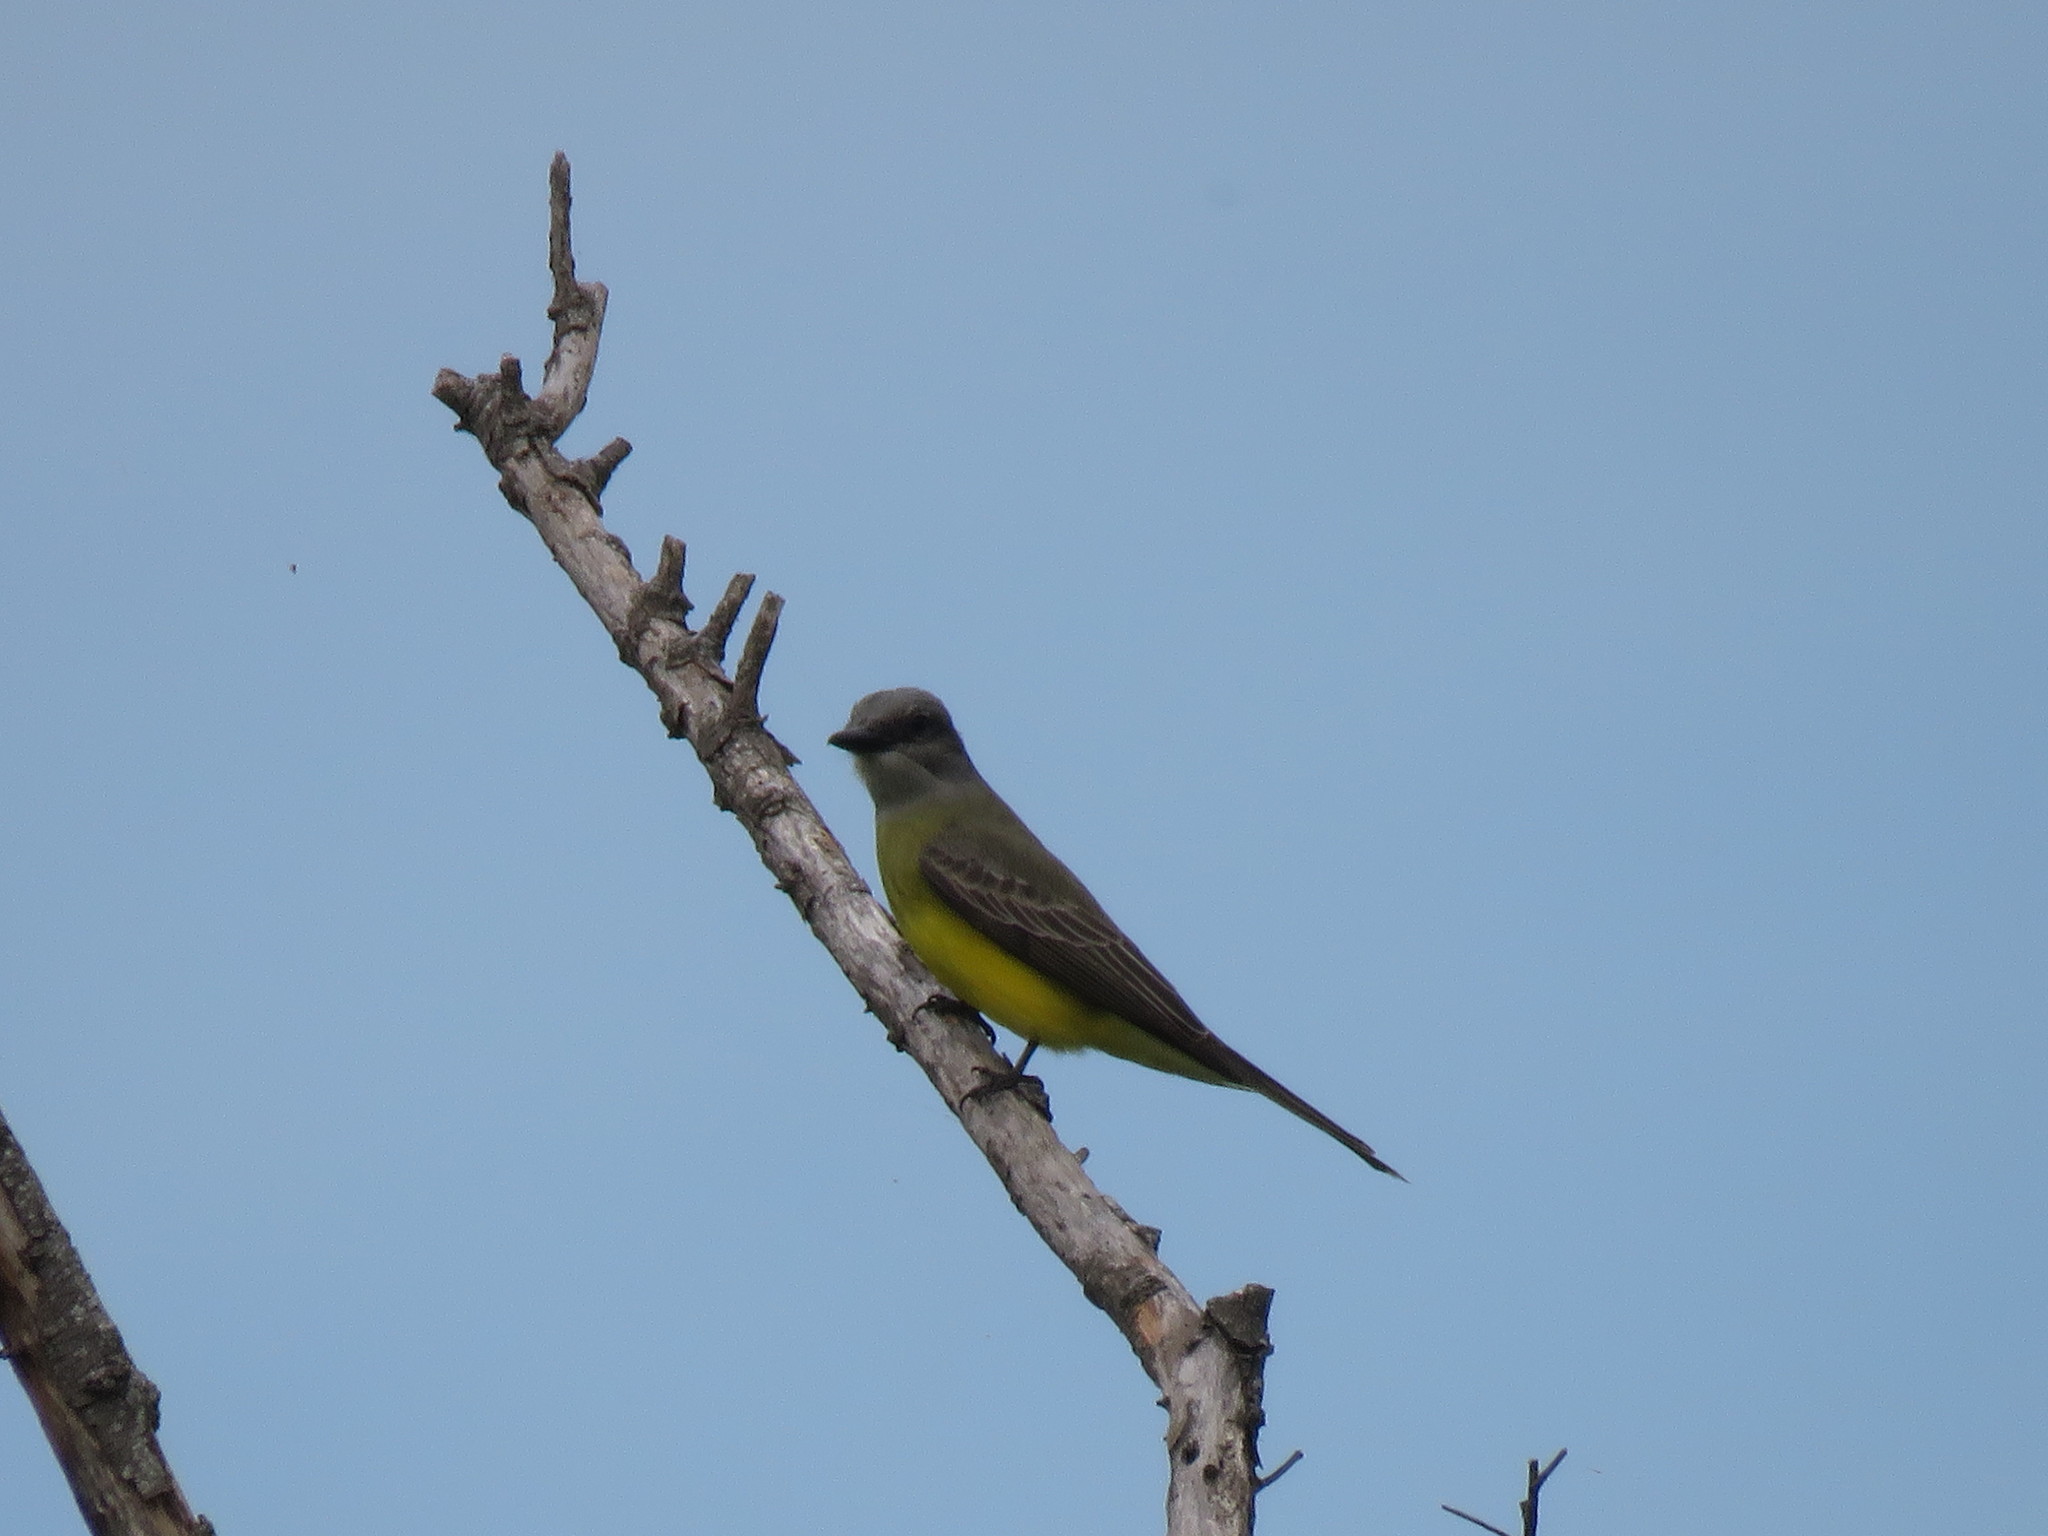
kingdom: Animalia
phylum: Chordata
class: Aves
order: Passeriformes
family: Tyrannidae
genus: Tyrannus
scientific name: Tyrannus melancholicus
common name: Tropical kingbird
